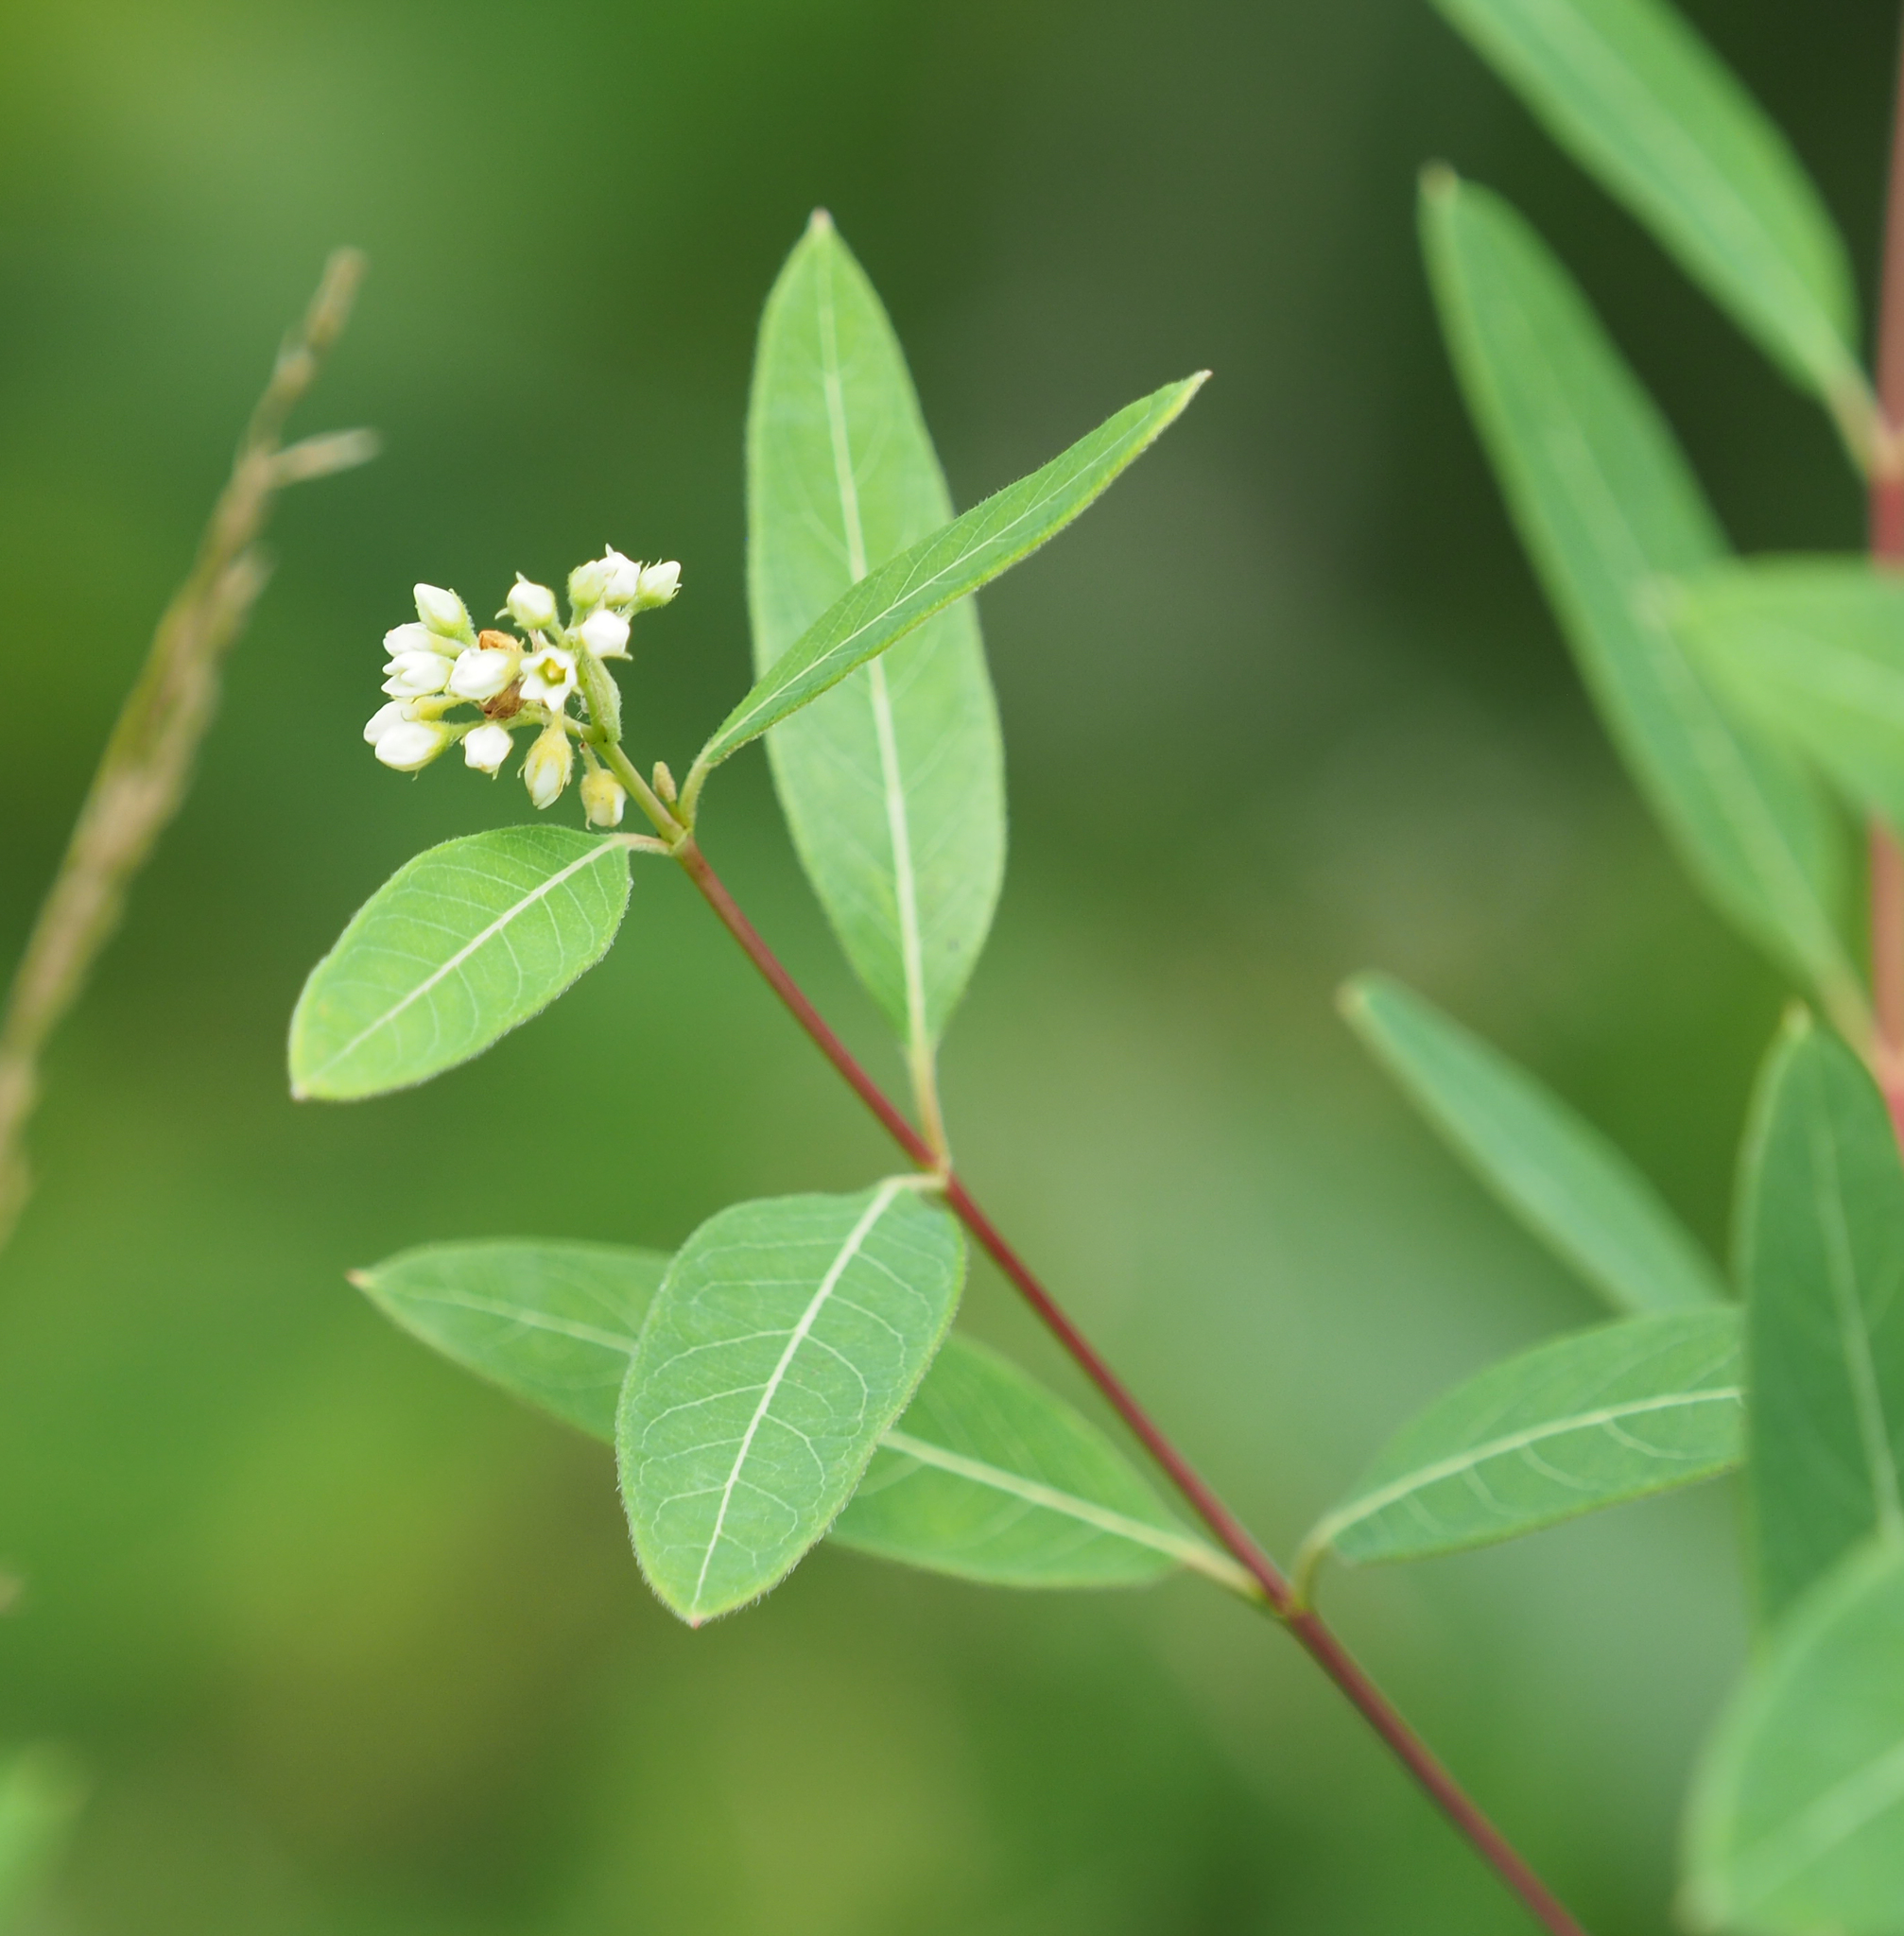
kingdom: Plantae
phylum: Tracheophyta
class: Magnoliopsida
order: Gentianales
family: Apocynaceae
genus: Apocynum
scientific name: Apocynum cannabinum
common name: Hemp dogbane
